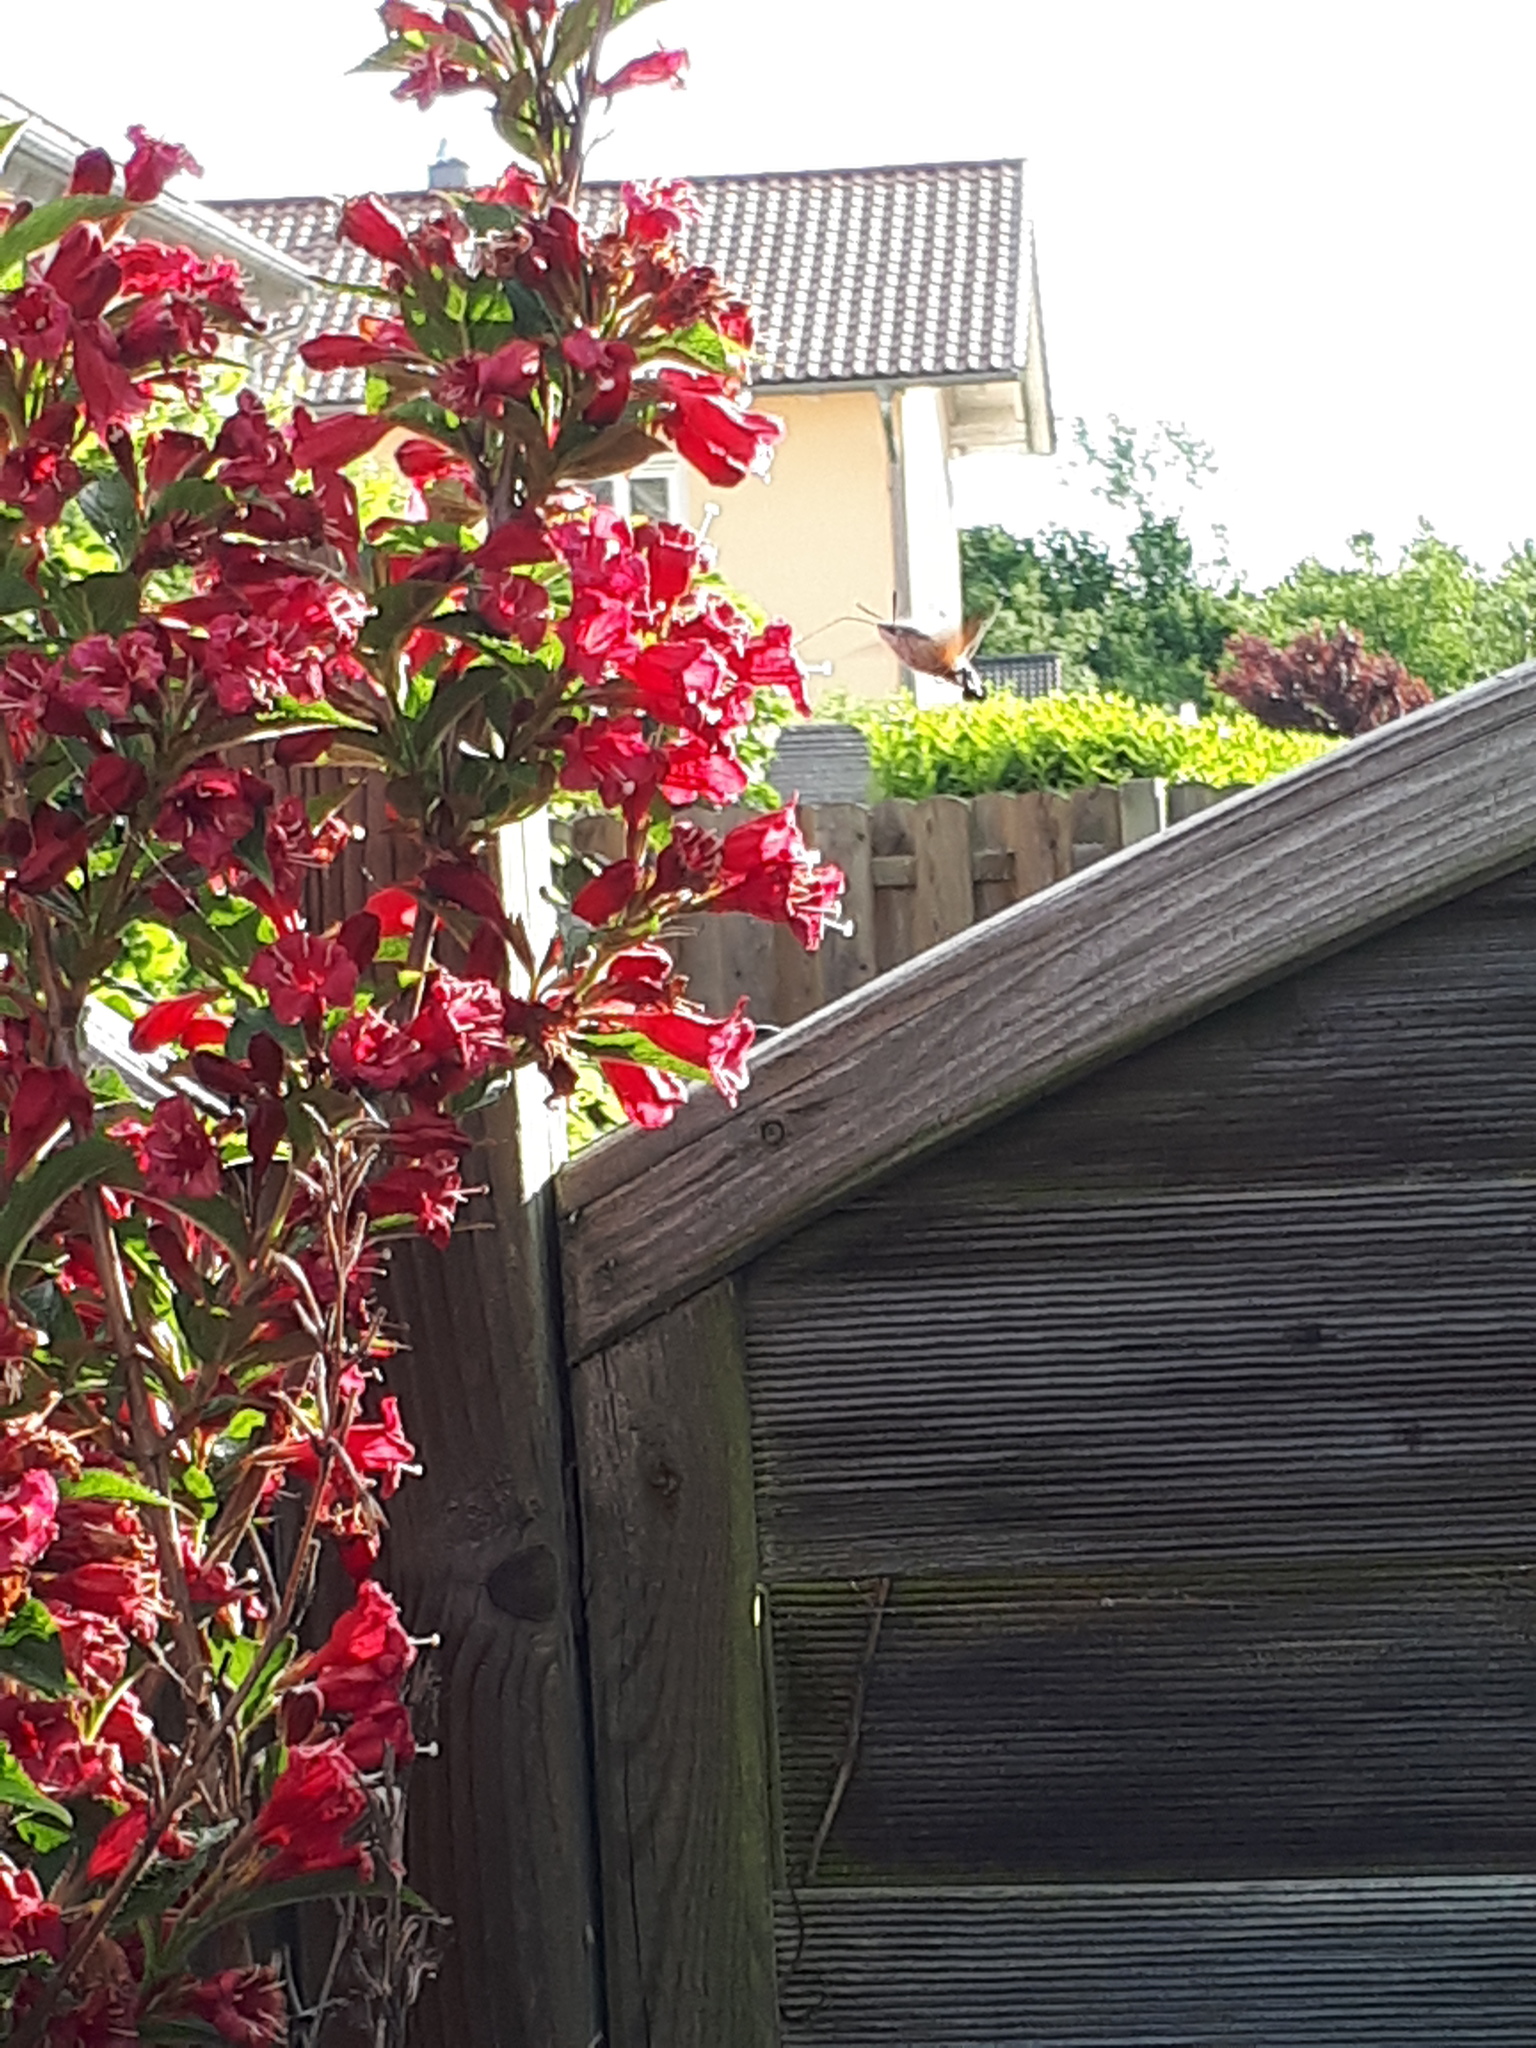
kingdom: Animalia
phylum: Arthropoda
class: Insecta
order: Lepidoptera
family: Sphingidae
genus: Macroglossum
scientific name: Macroglossum stellatarum
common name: Humming-bird hawk-moth
